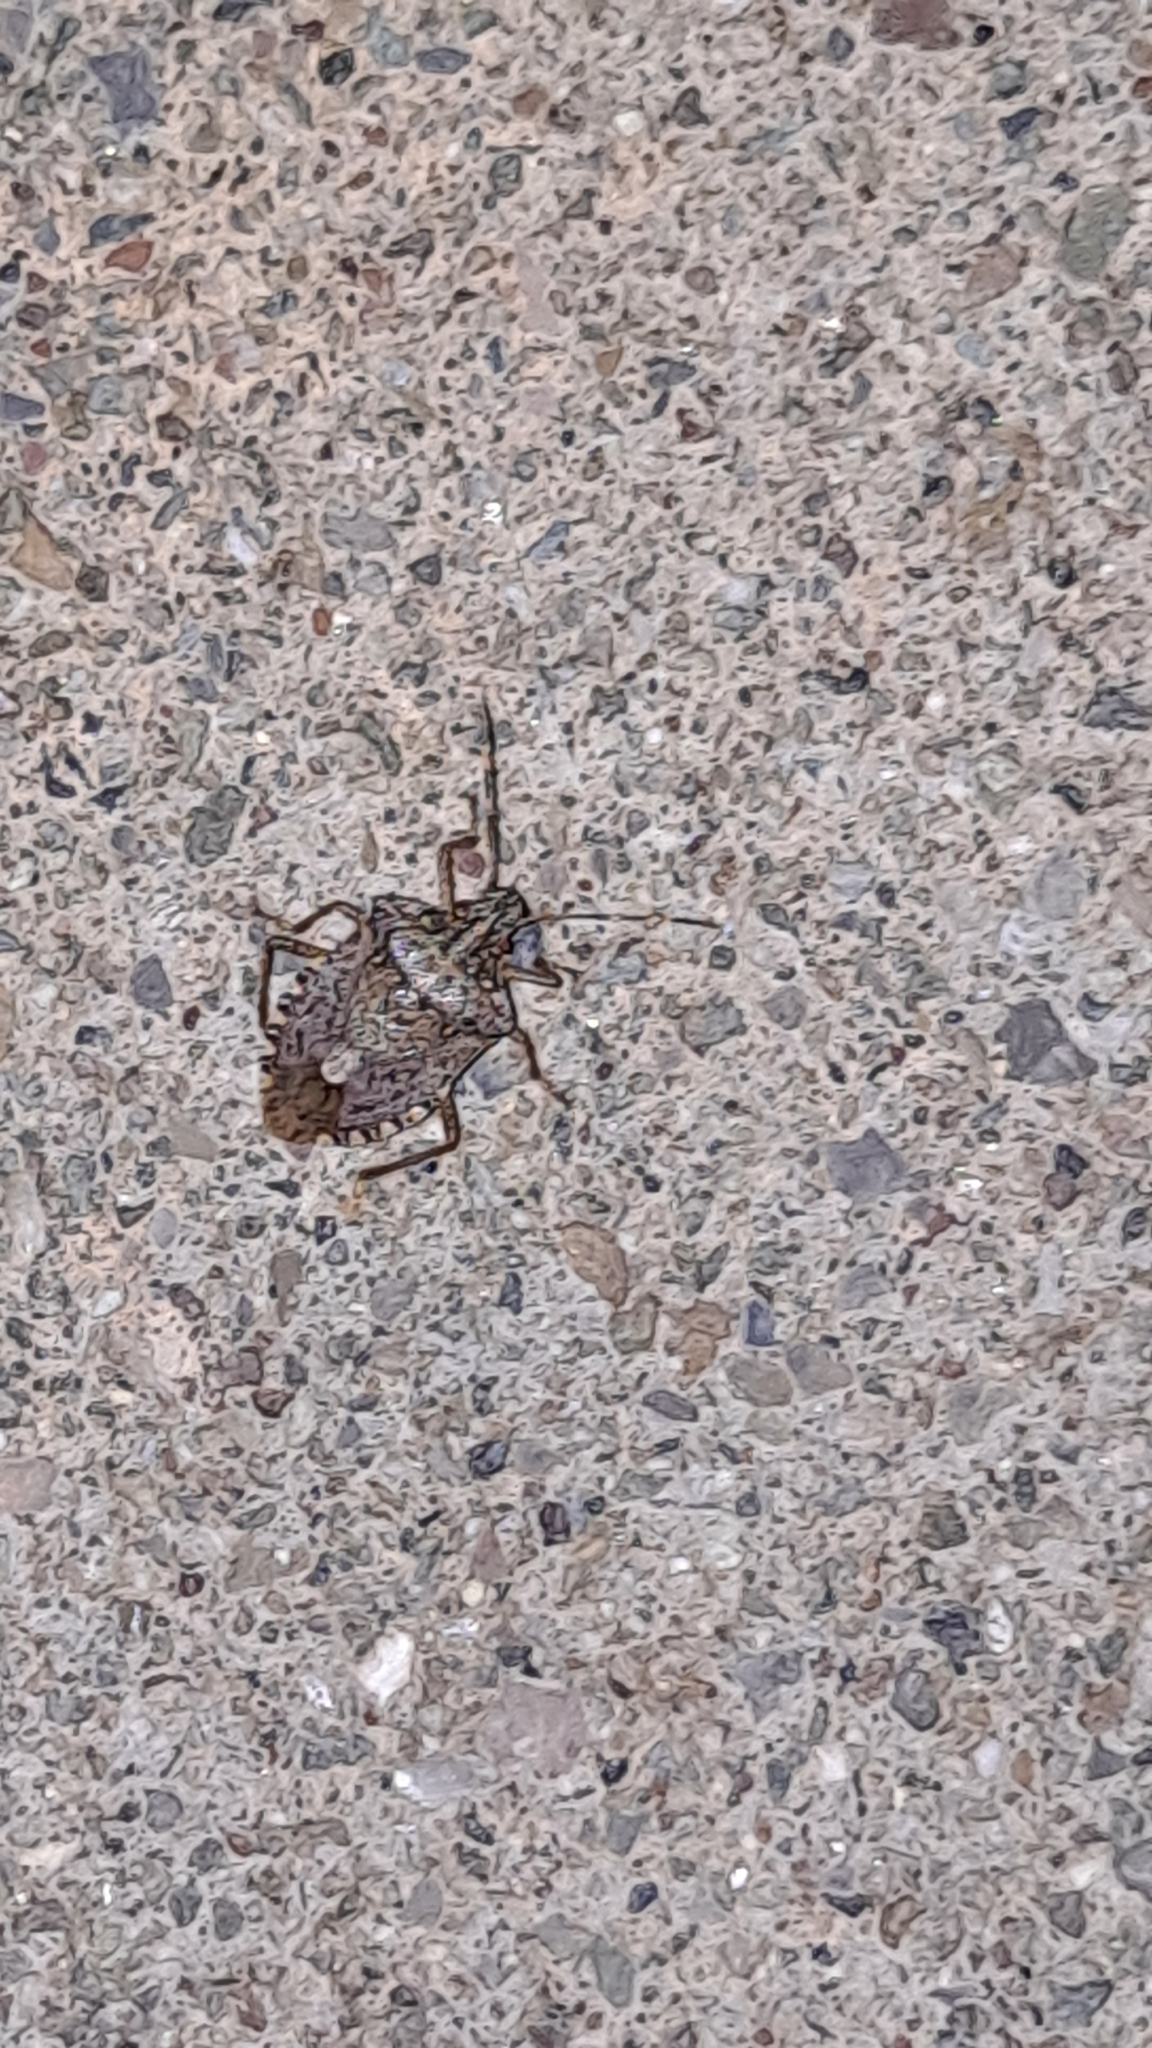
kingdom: Animalia
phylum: Arthropoda
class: Insecta
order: Hemiptera
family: Pentatomidae
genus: Halyomorpha
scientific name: Halyomorpha halys
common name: Brown marmorated stink bug
